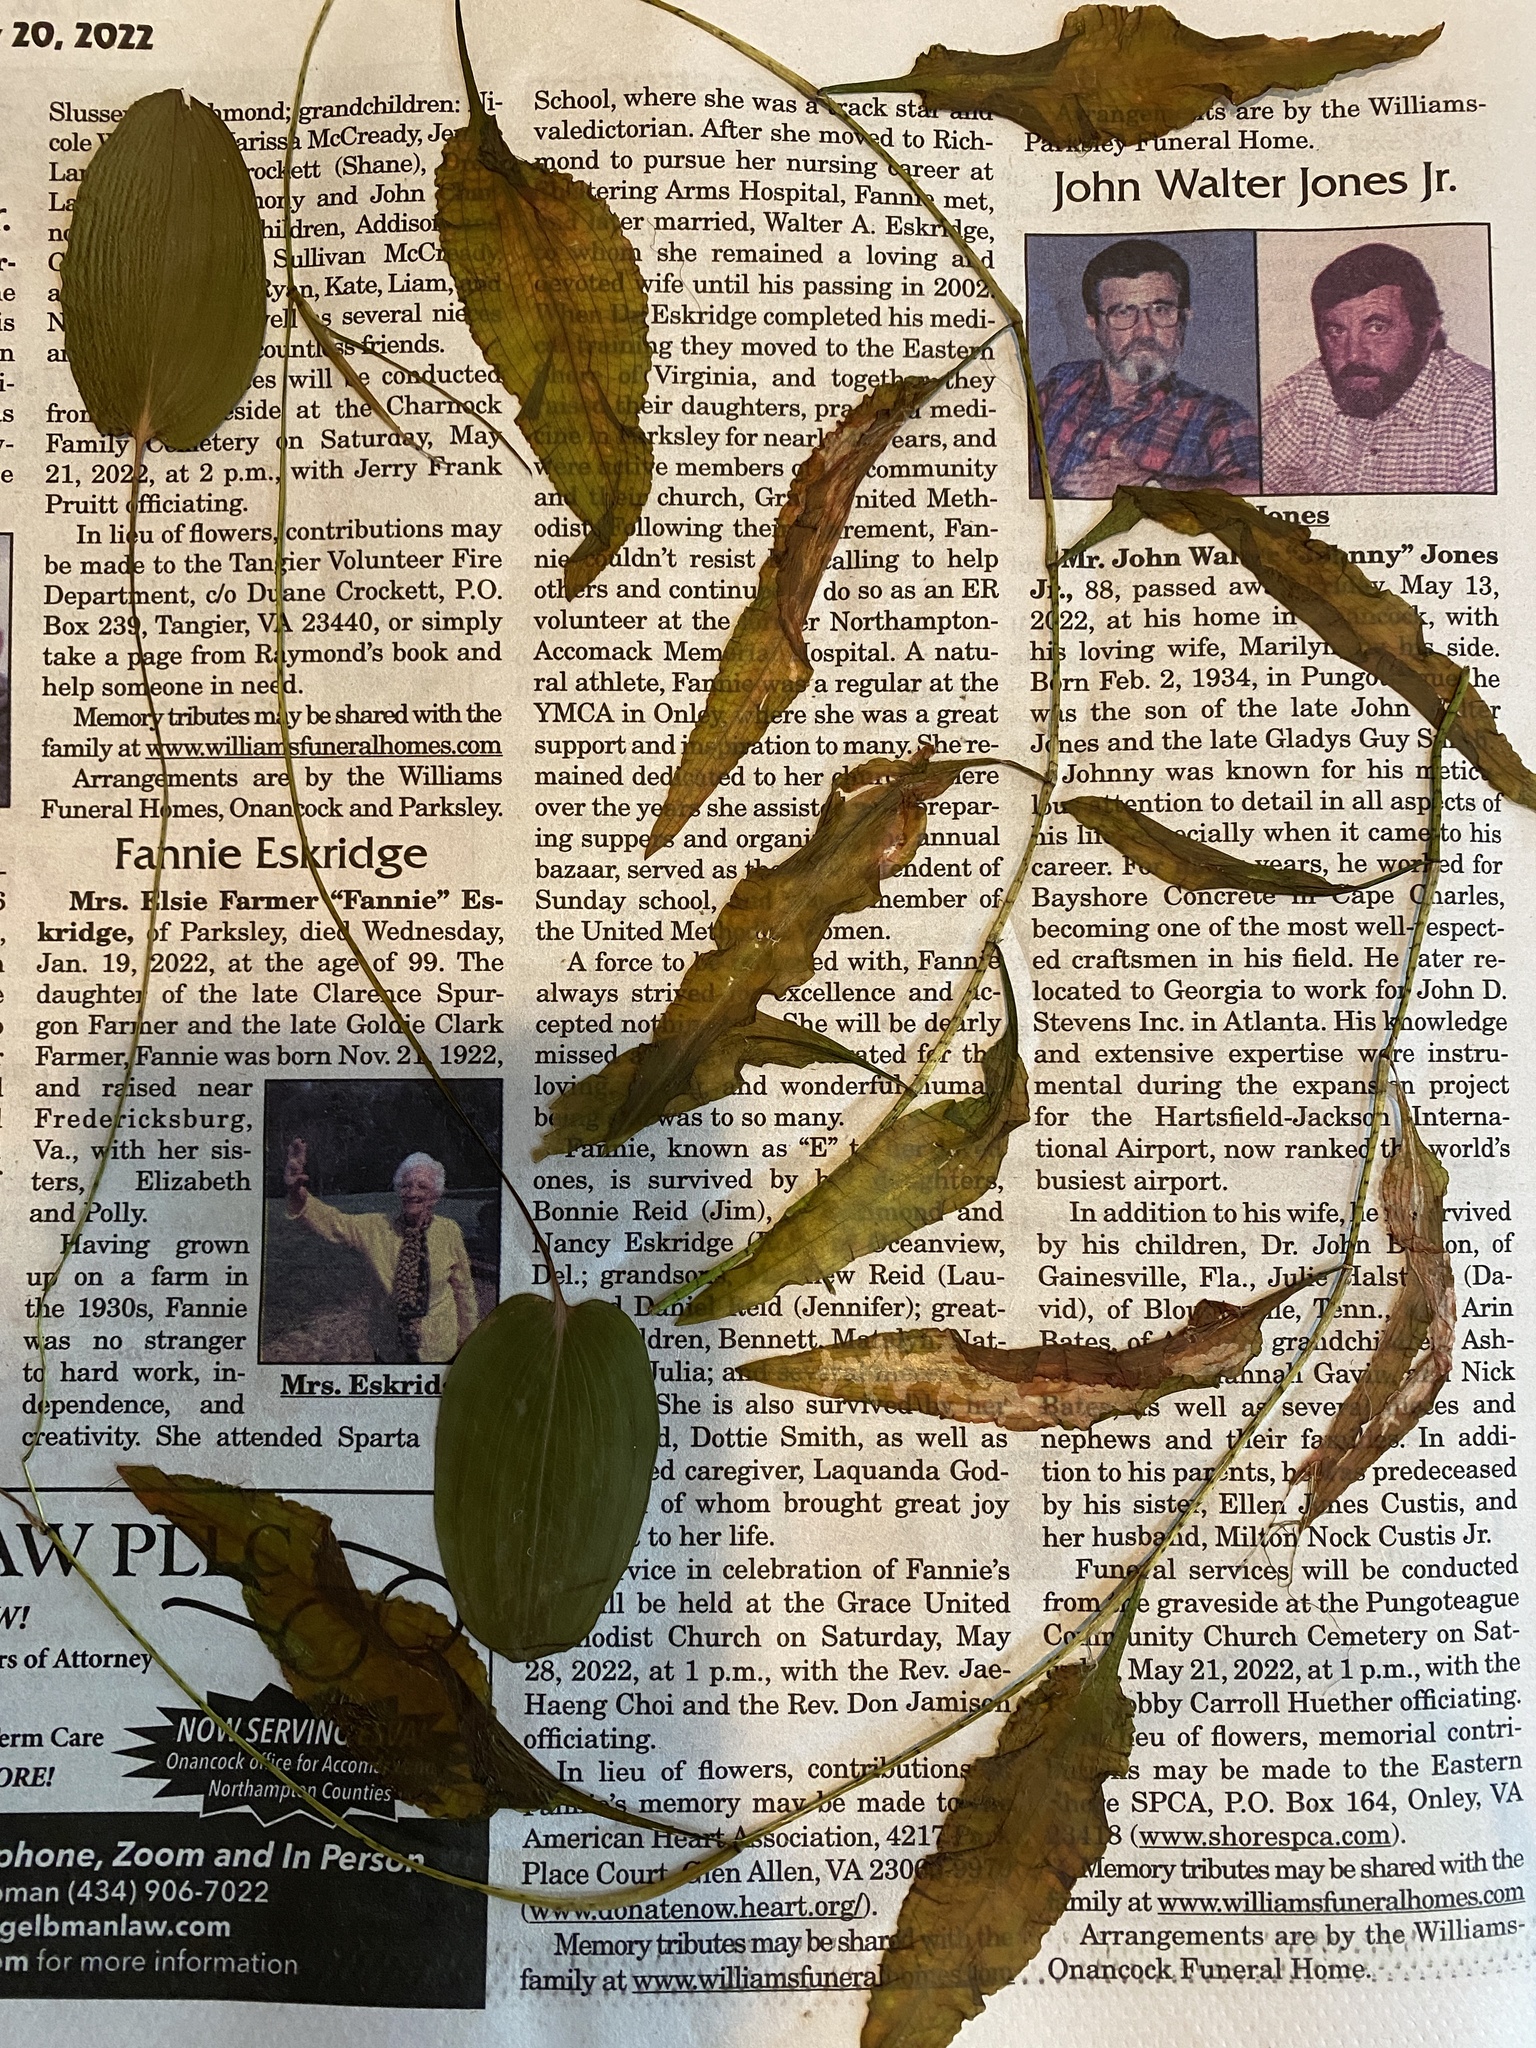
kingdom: Plantae
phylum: Tracheophyta
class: Liliopsida
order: Alismatales
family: Potamogetonaceae
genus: Potamogeton
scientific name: Potamogeton pulcher
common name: Heart-leaved pondweed
